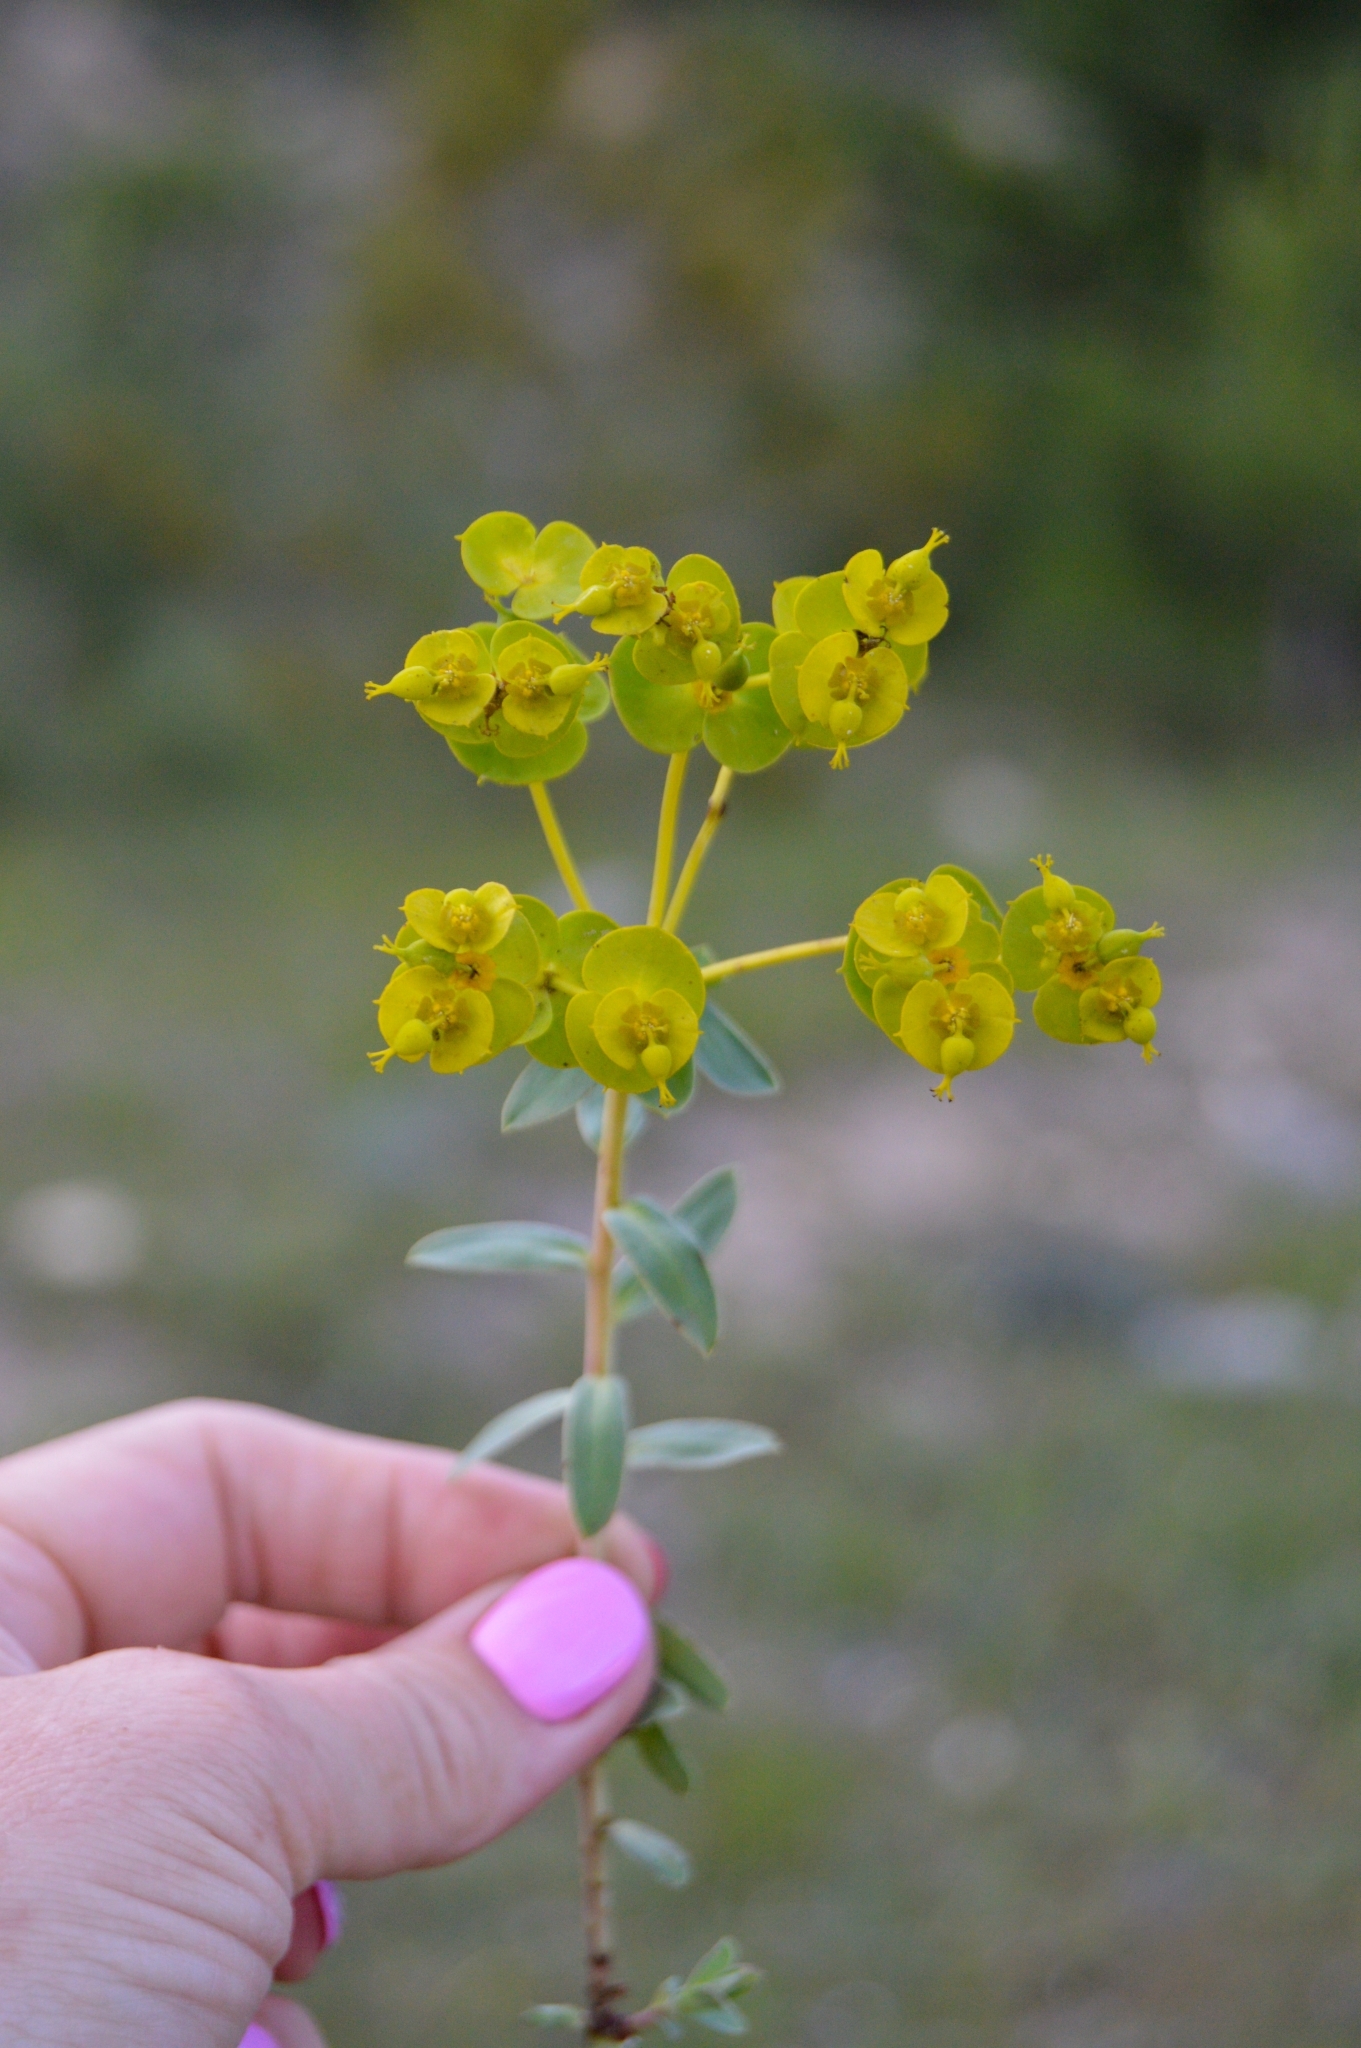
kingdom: Plantae
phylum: Tracheophyta
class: Magnoliopsida
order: Malpighiales
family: Euphorbiaceae
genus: Euphorbia
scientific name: Euphorbia glareosa
